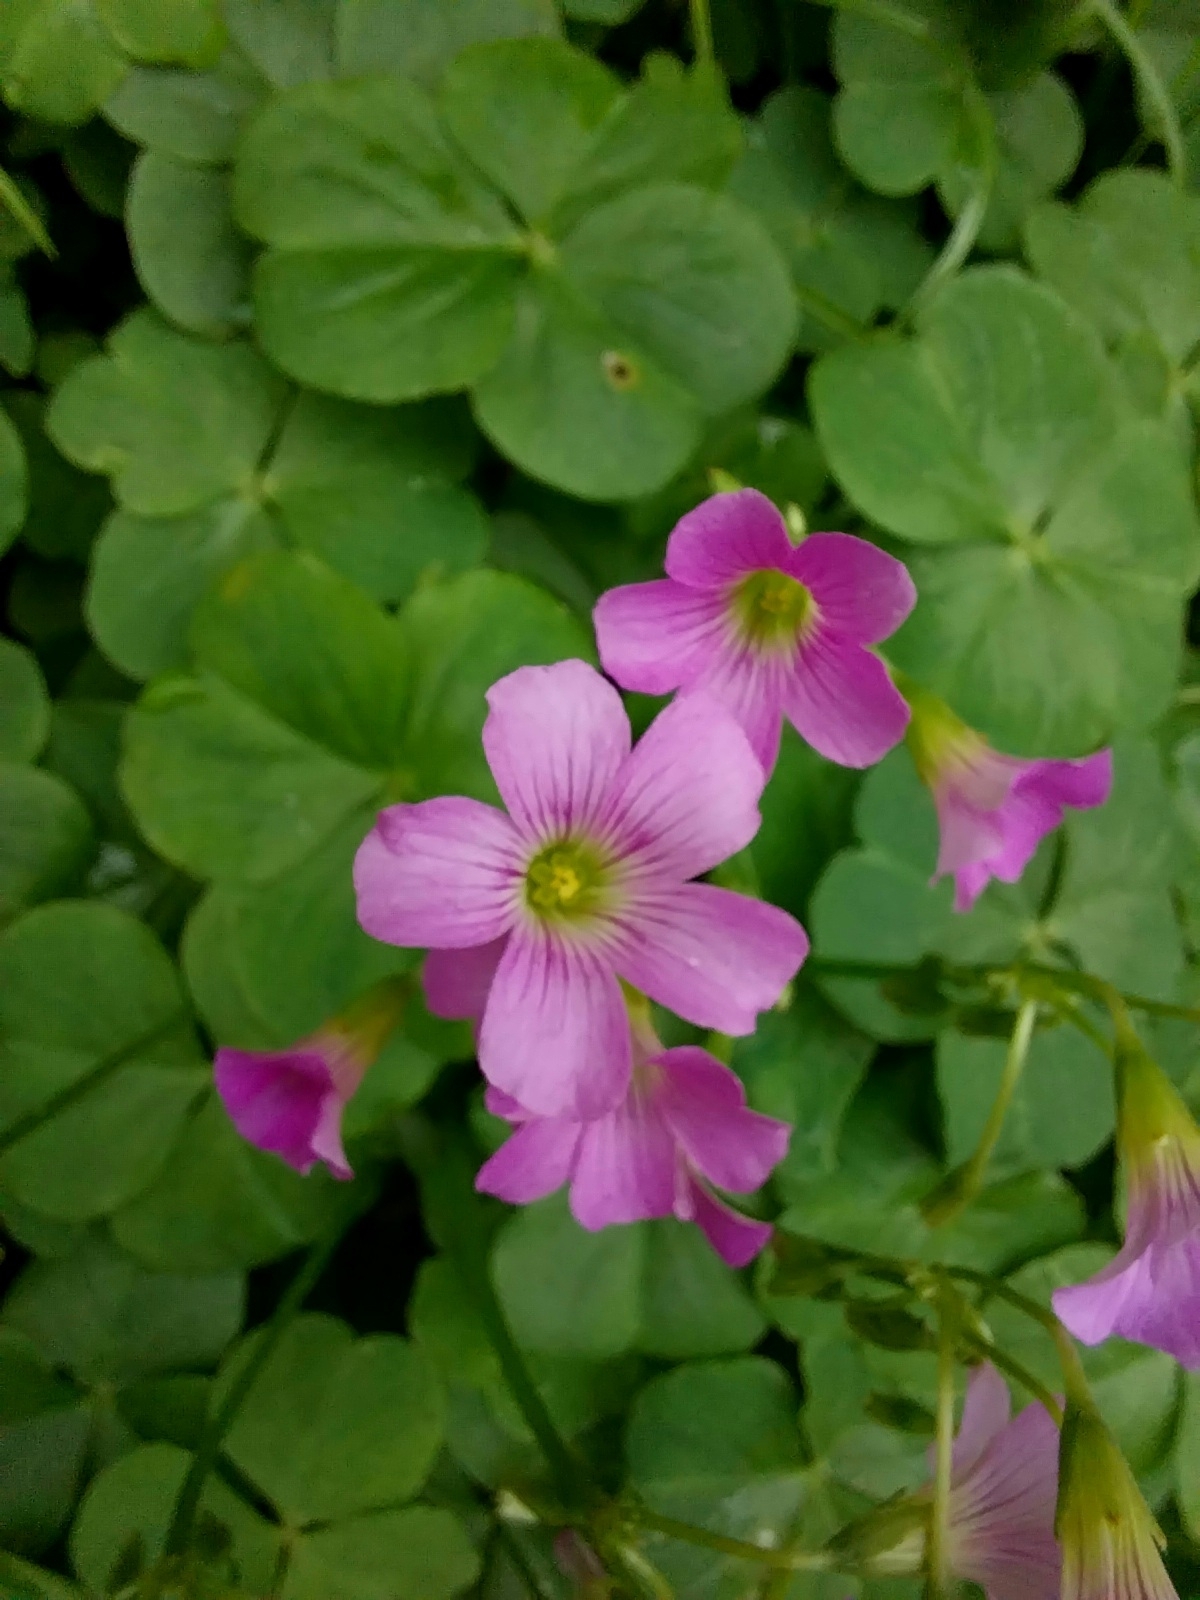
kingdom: Plantae
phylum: Tracheophyta
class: Magnoliopsida
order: Oxalidales
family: Oxalidaceae
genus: Oxalis
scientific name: Oxalis debilis
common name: Large-flowered pink-sorrel
